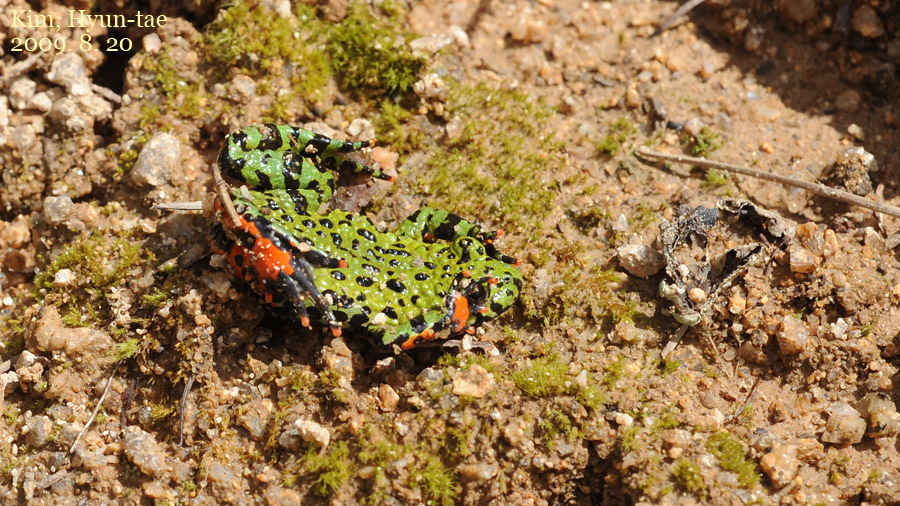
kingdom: Animalia
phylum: Chordata
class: Amphibia
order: Anura
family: Bombinatoridae
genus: Bombina
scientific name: Bombina orientalis
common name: Oriental firebelly toad
